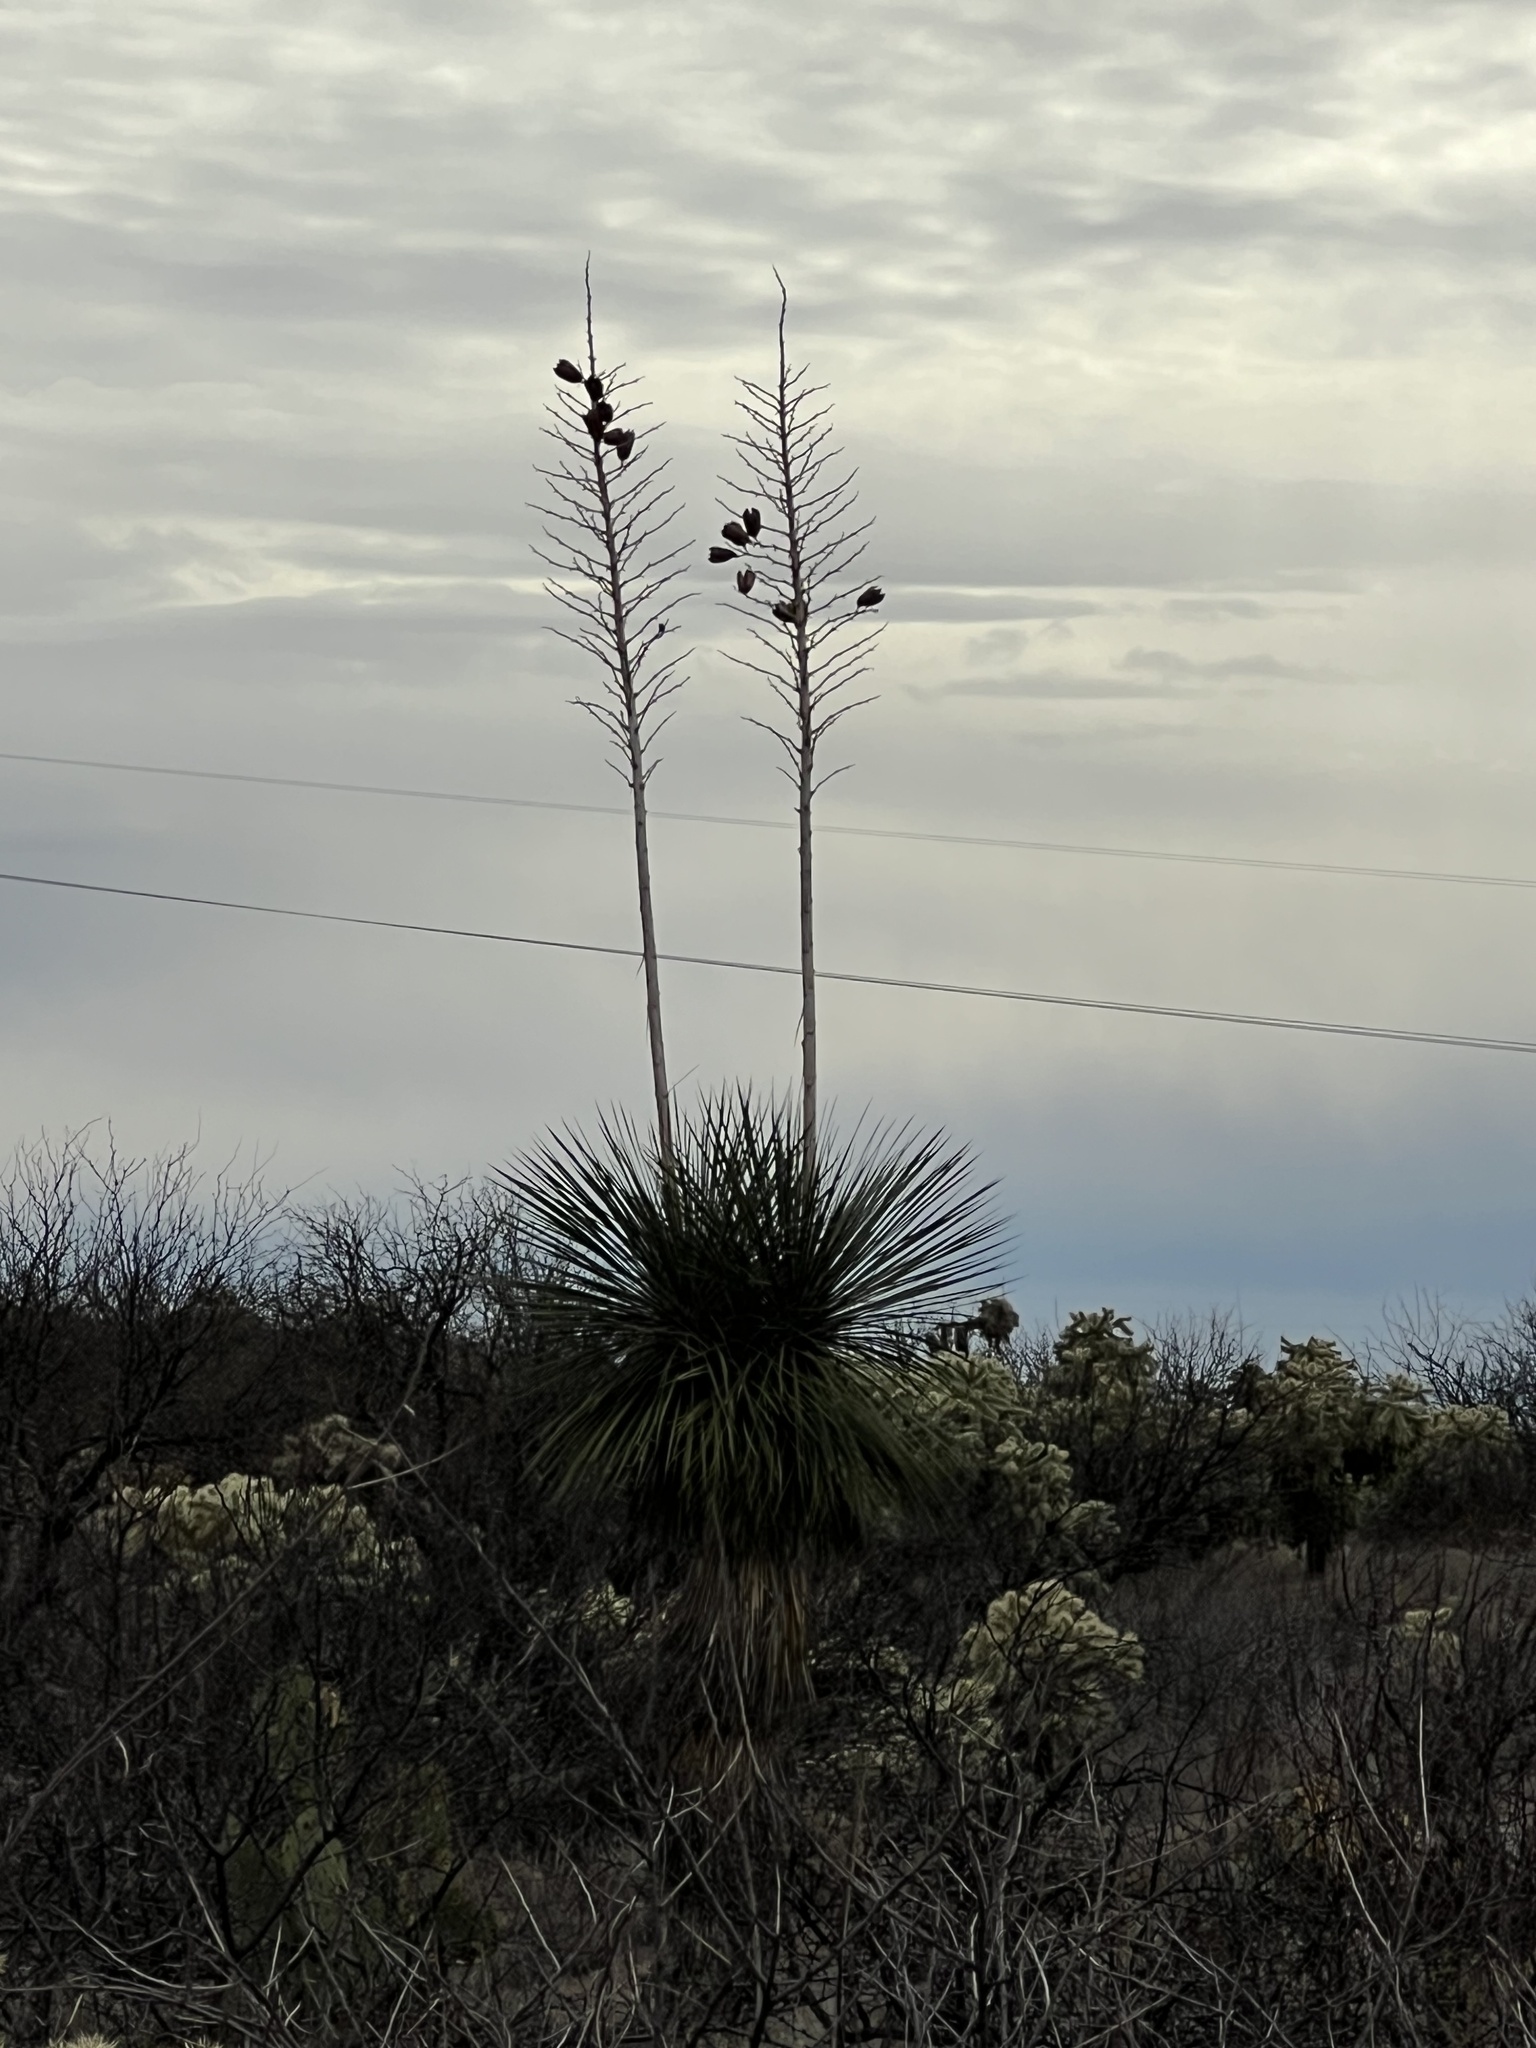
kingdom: Plantae
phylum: Tracheophyta
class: Liliopsida
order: Asparagales
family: Asparagaceae
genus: Yucca
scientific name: Yucca elata
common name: Palmella
